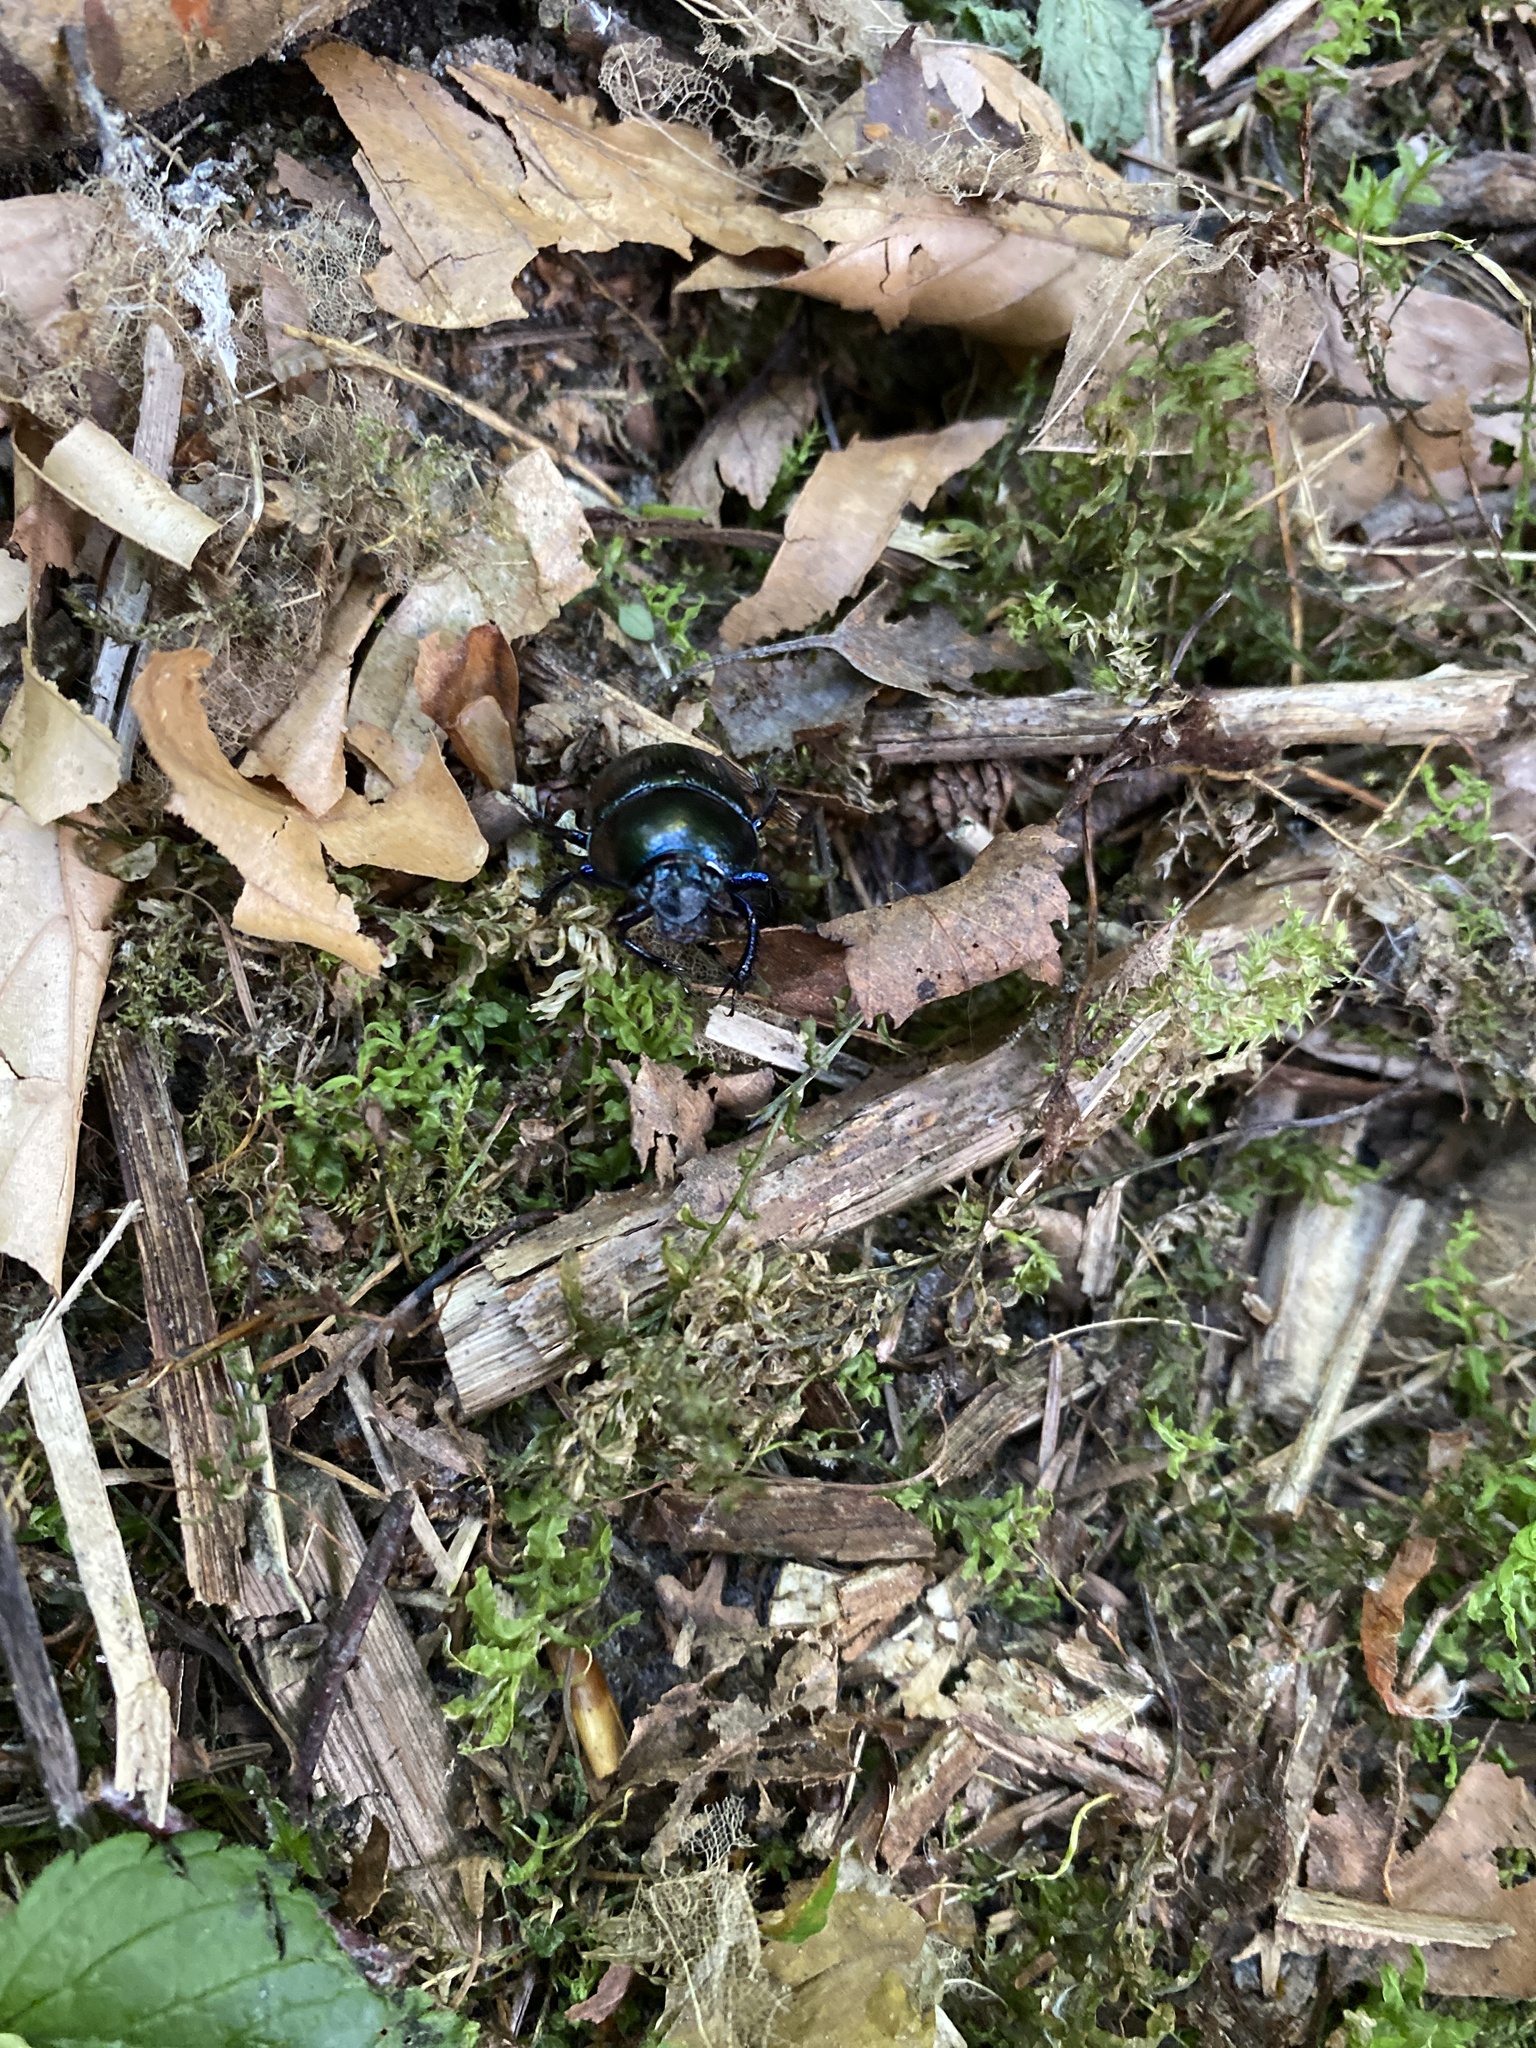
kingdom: Animalia
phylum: Arthropoda
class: Insecta
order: Coleoptera
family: Geotrupidae
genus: Anoplotrupes
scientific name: Anoplotrupes stercorosus
